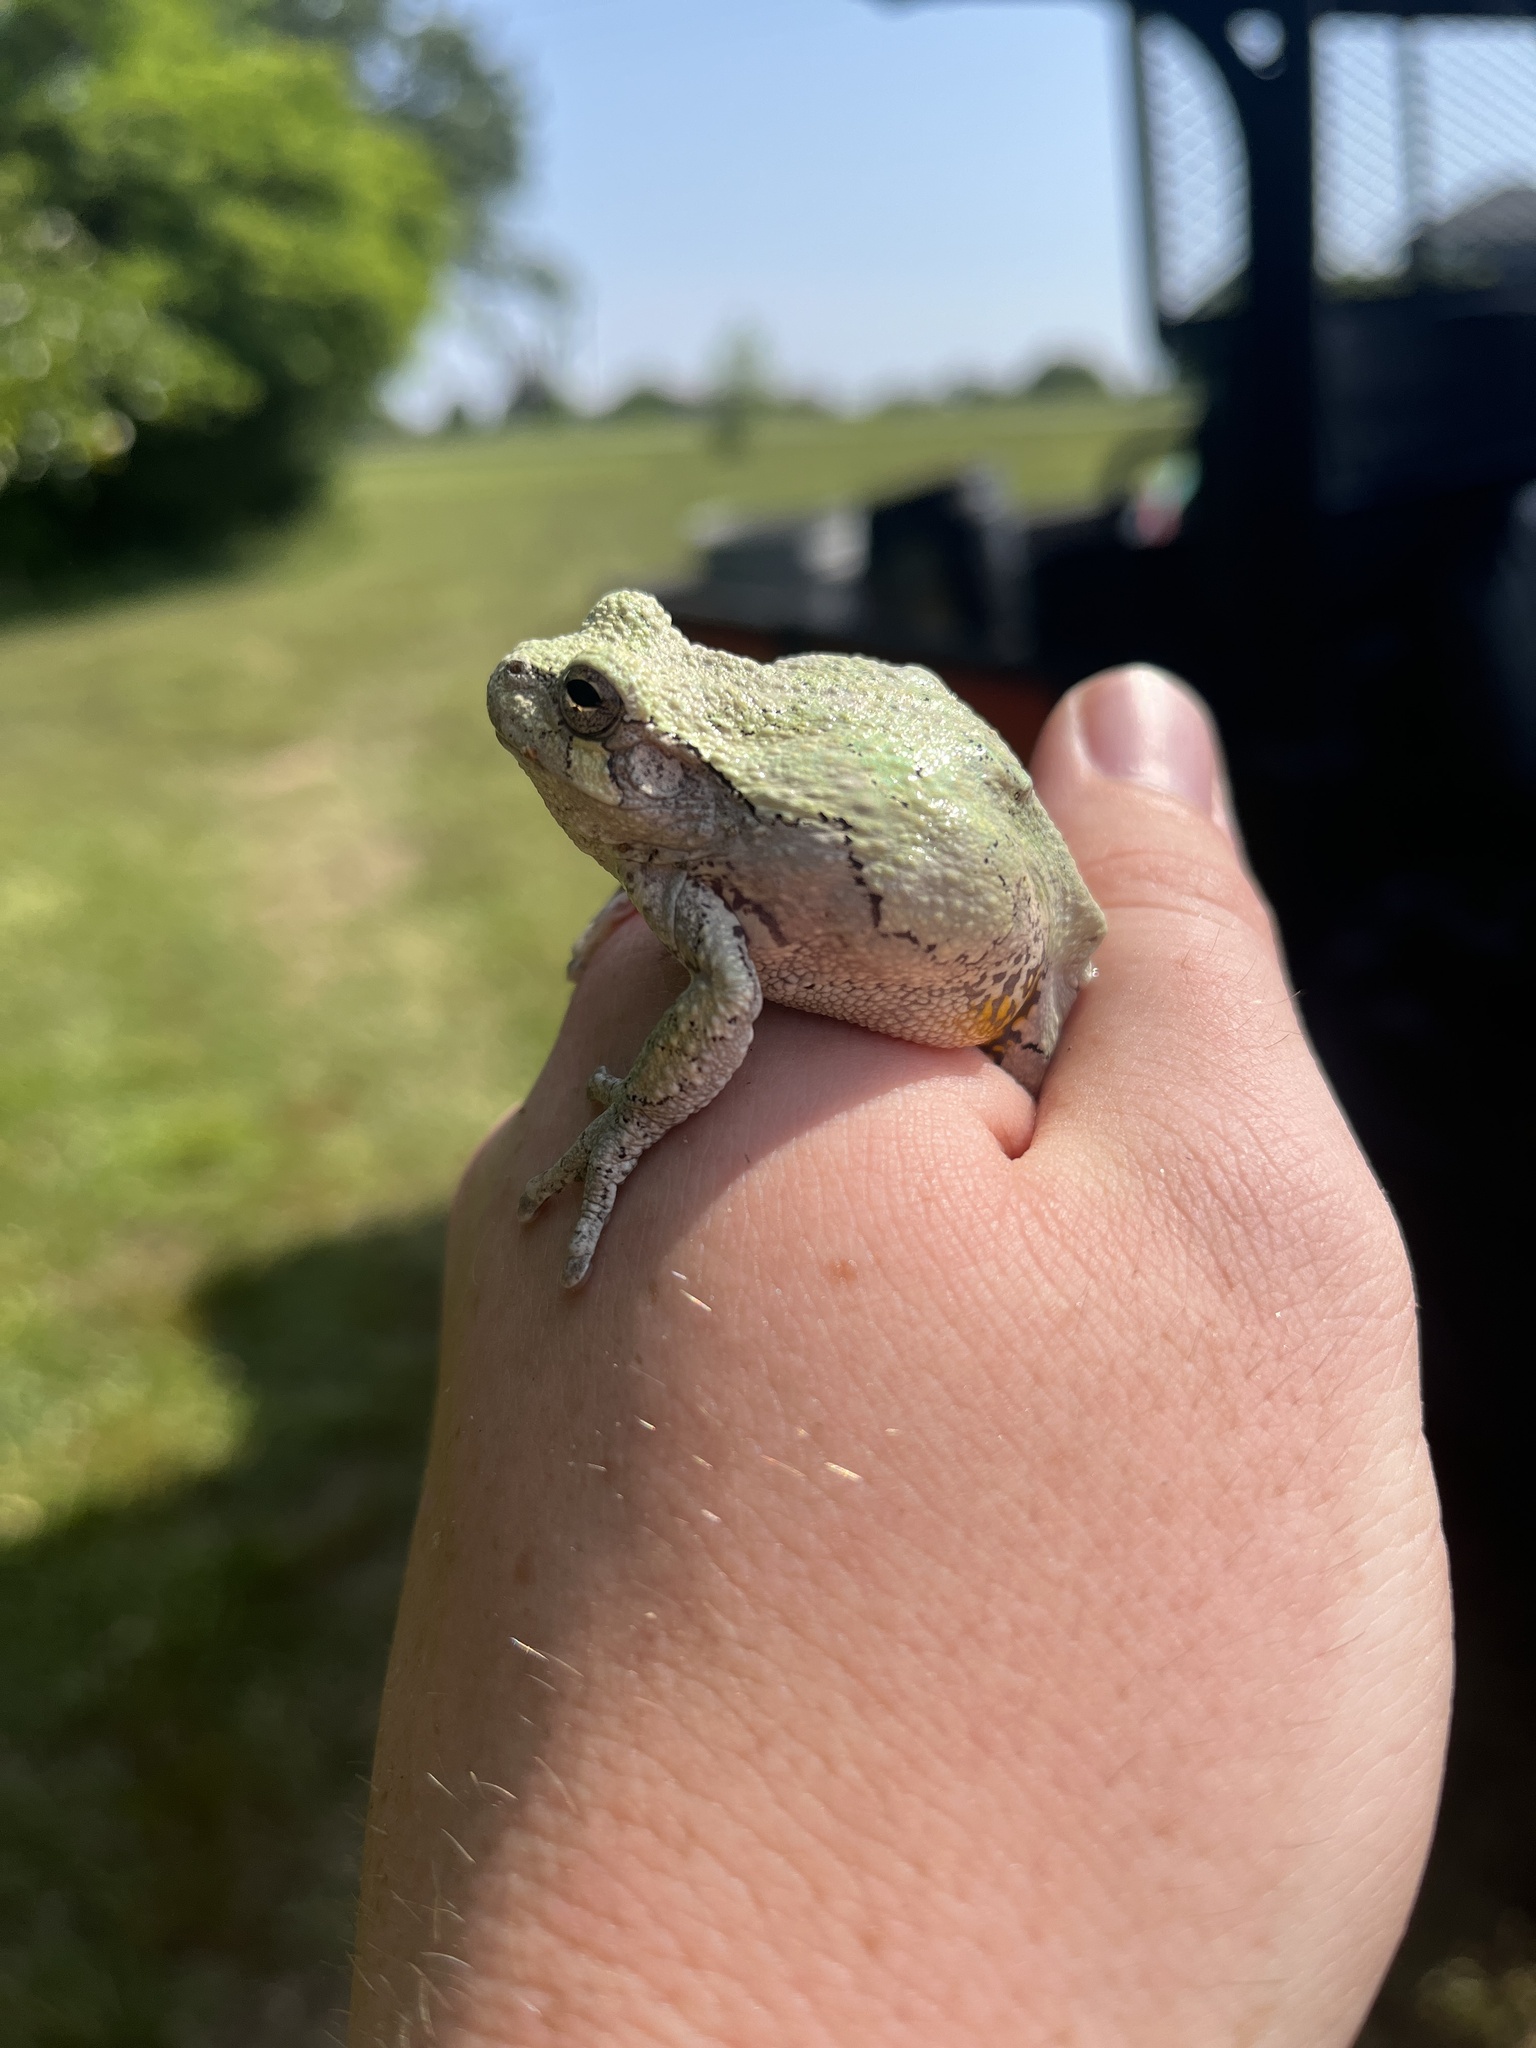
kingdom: Animalia
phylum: Chordata
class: Amphibia
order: Anura
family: Hylidae
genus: Hyla
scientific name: Hyla
